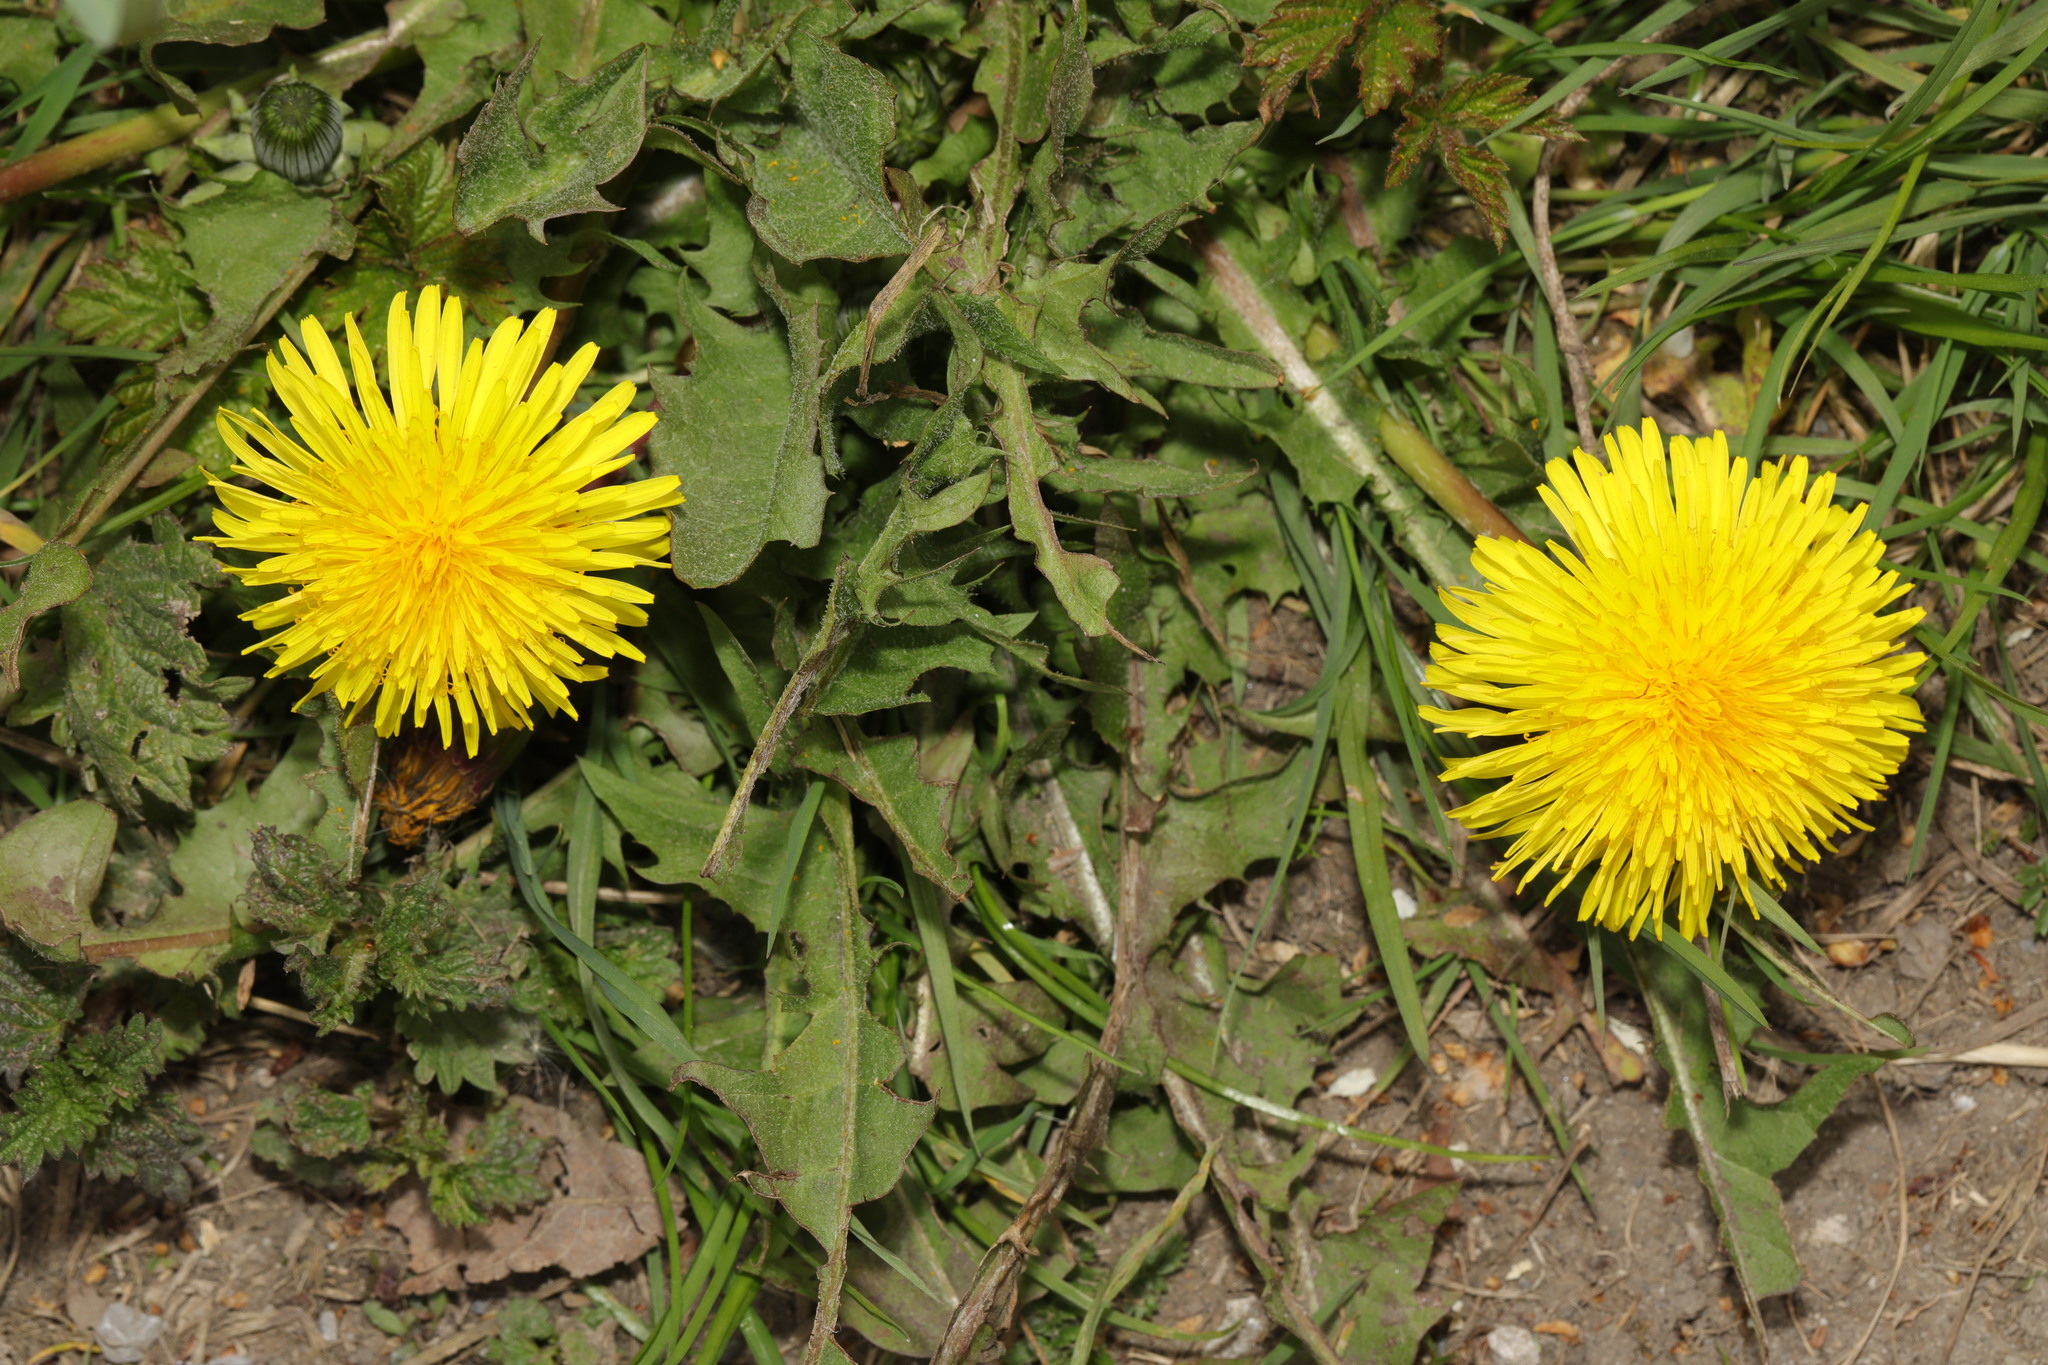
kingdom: Plantae
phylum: Tracheophyta
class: Magnoliopsida
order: Asterales
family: Asteraceae
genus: Taraxacum
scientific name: Taraxacum officinale
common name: Common dandelion
